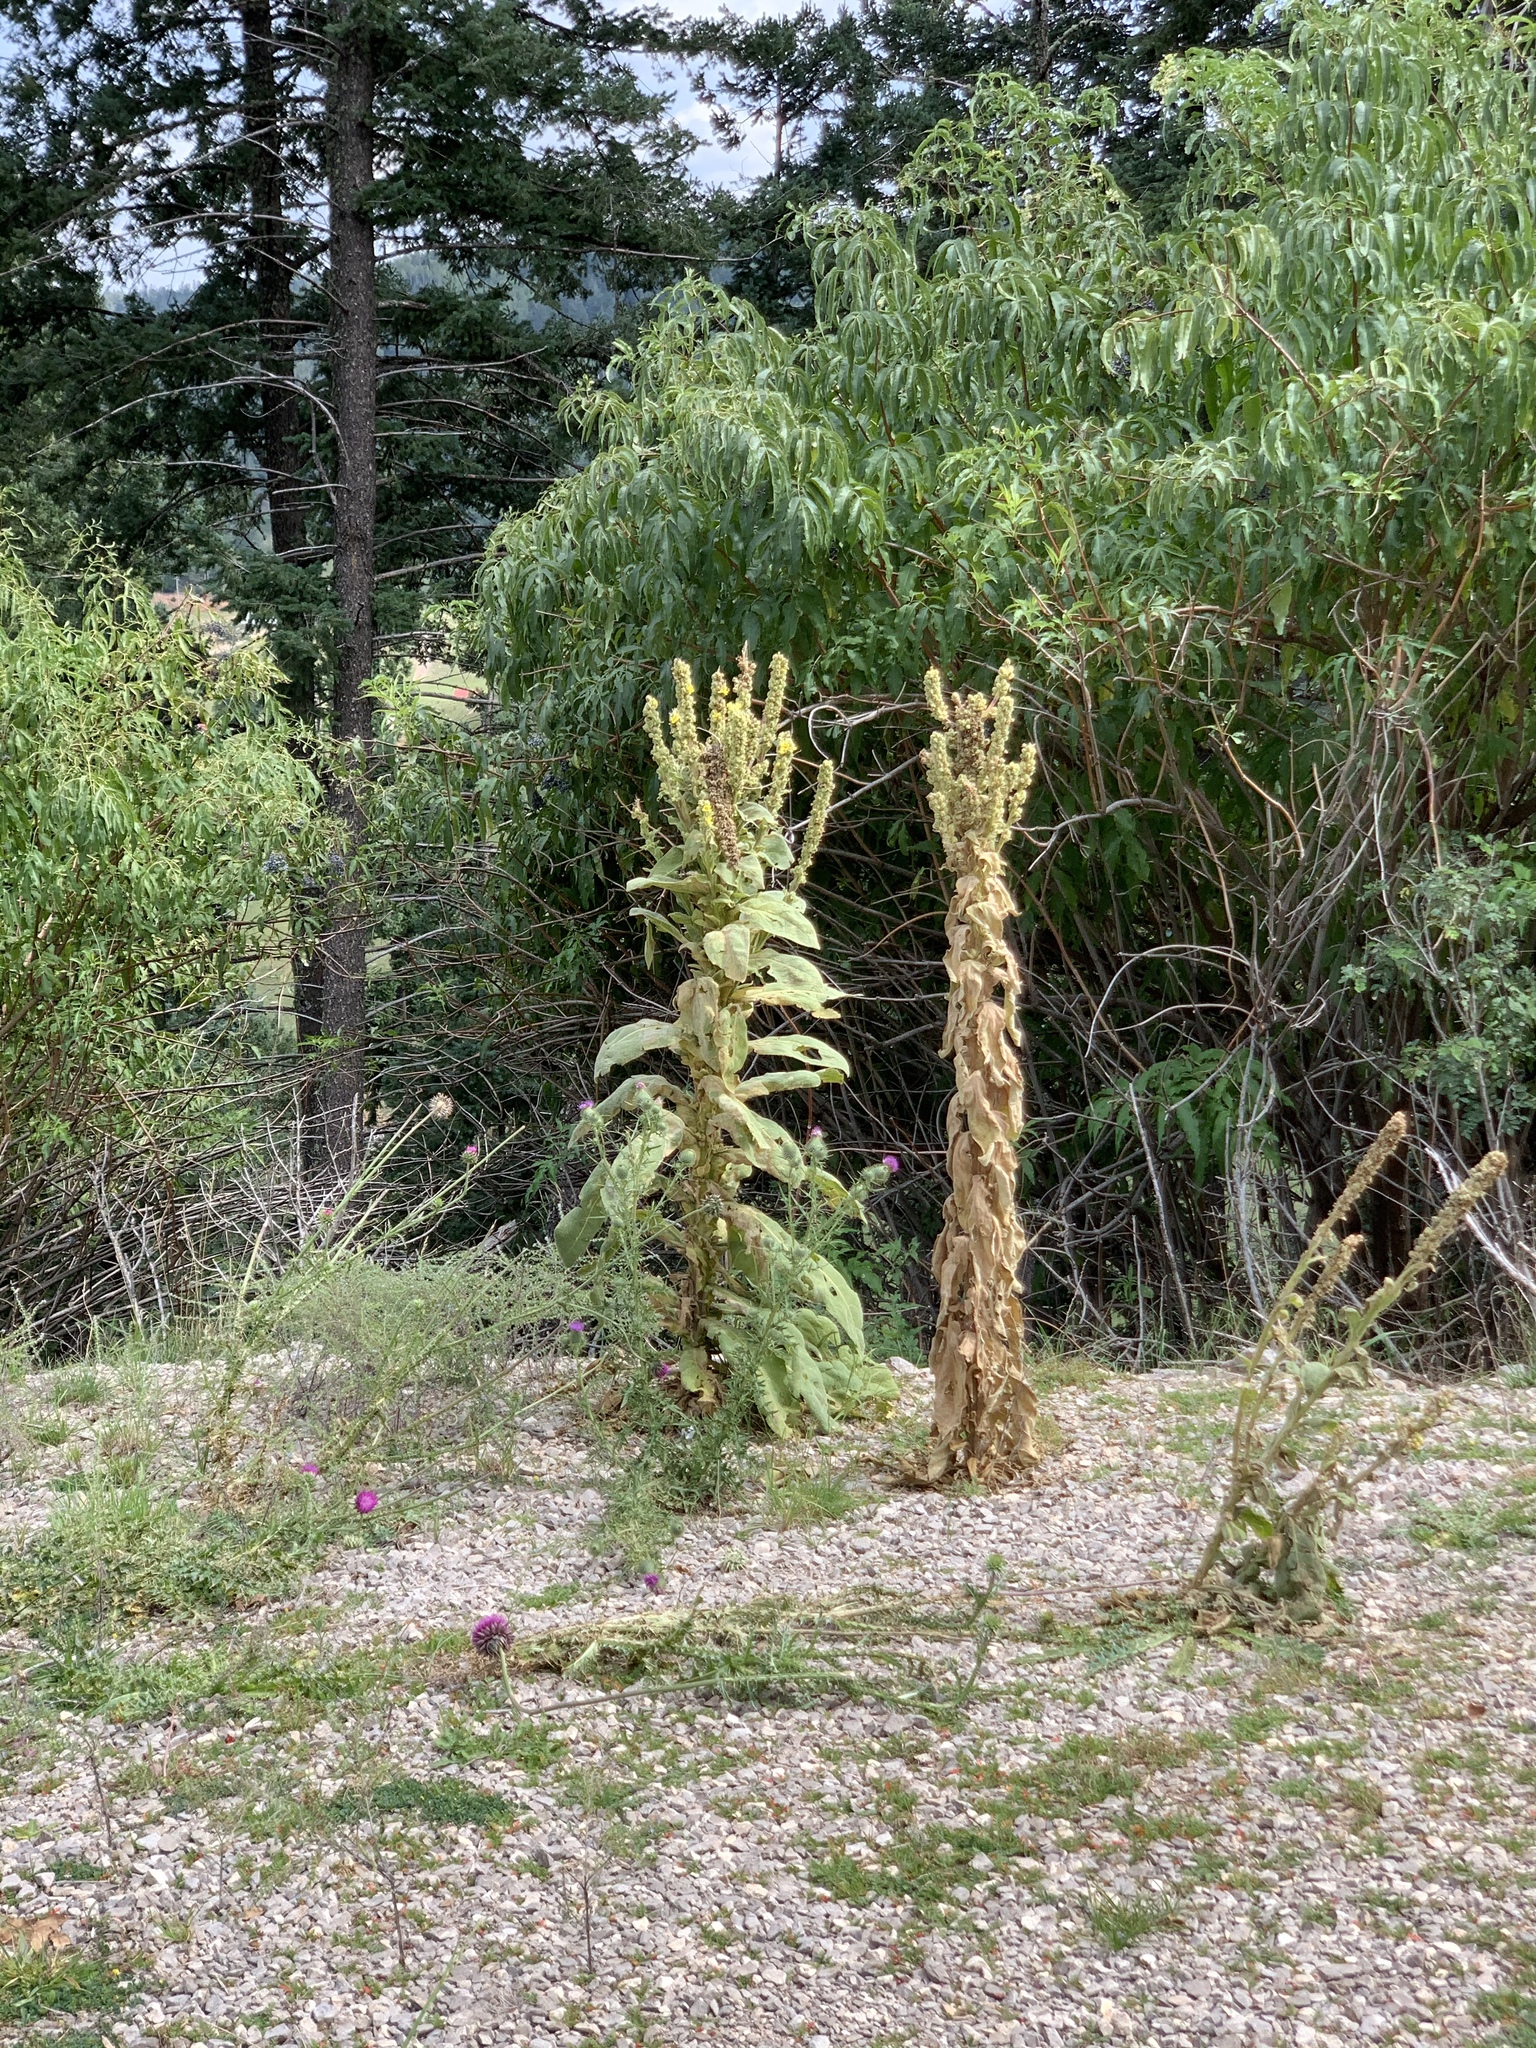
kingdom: Plantae
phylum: Tracheophyta
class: Magnoliopsida
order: Lamiales
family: Scrophulariaceae
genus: Verbascum
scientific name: Verbascum thapsus
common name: Common mullein
